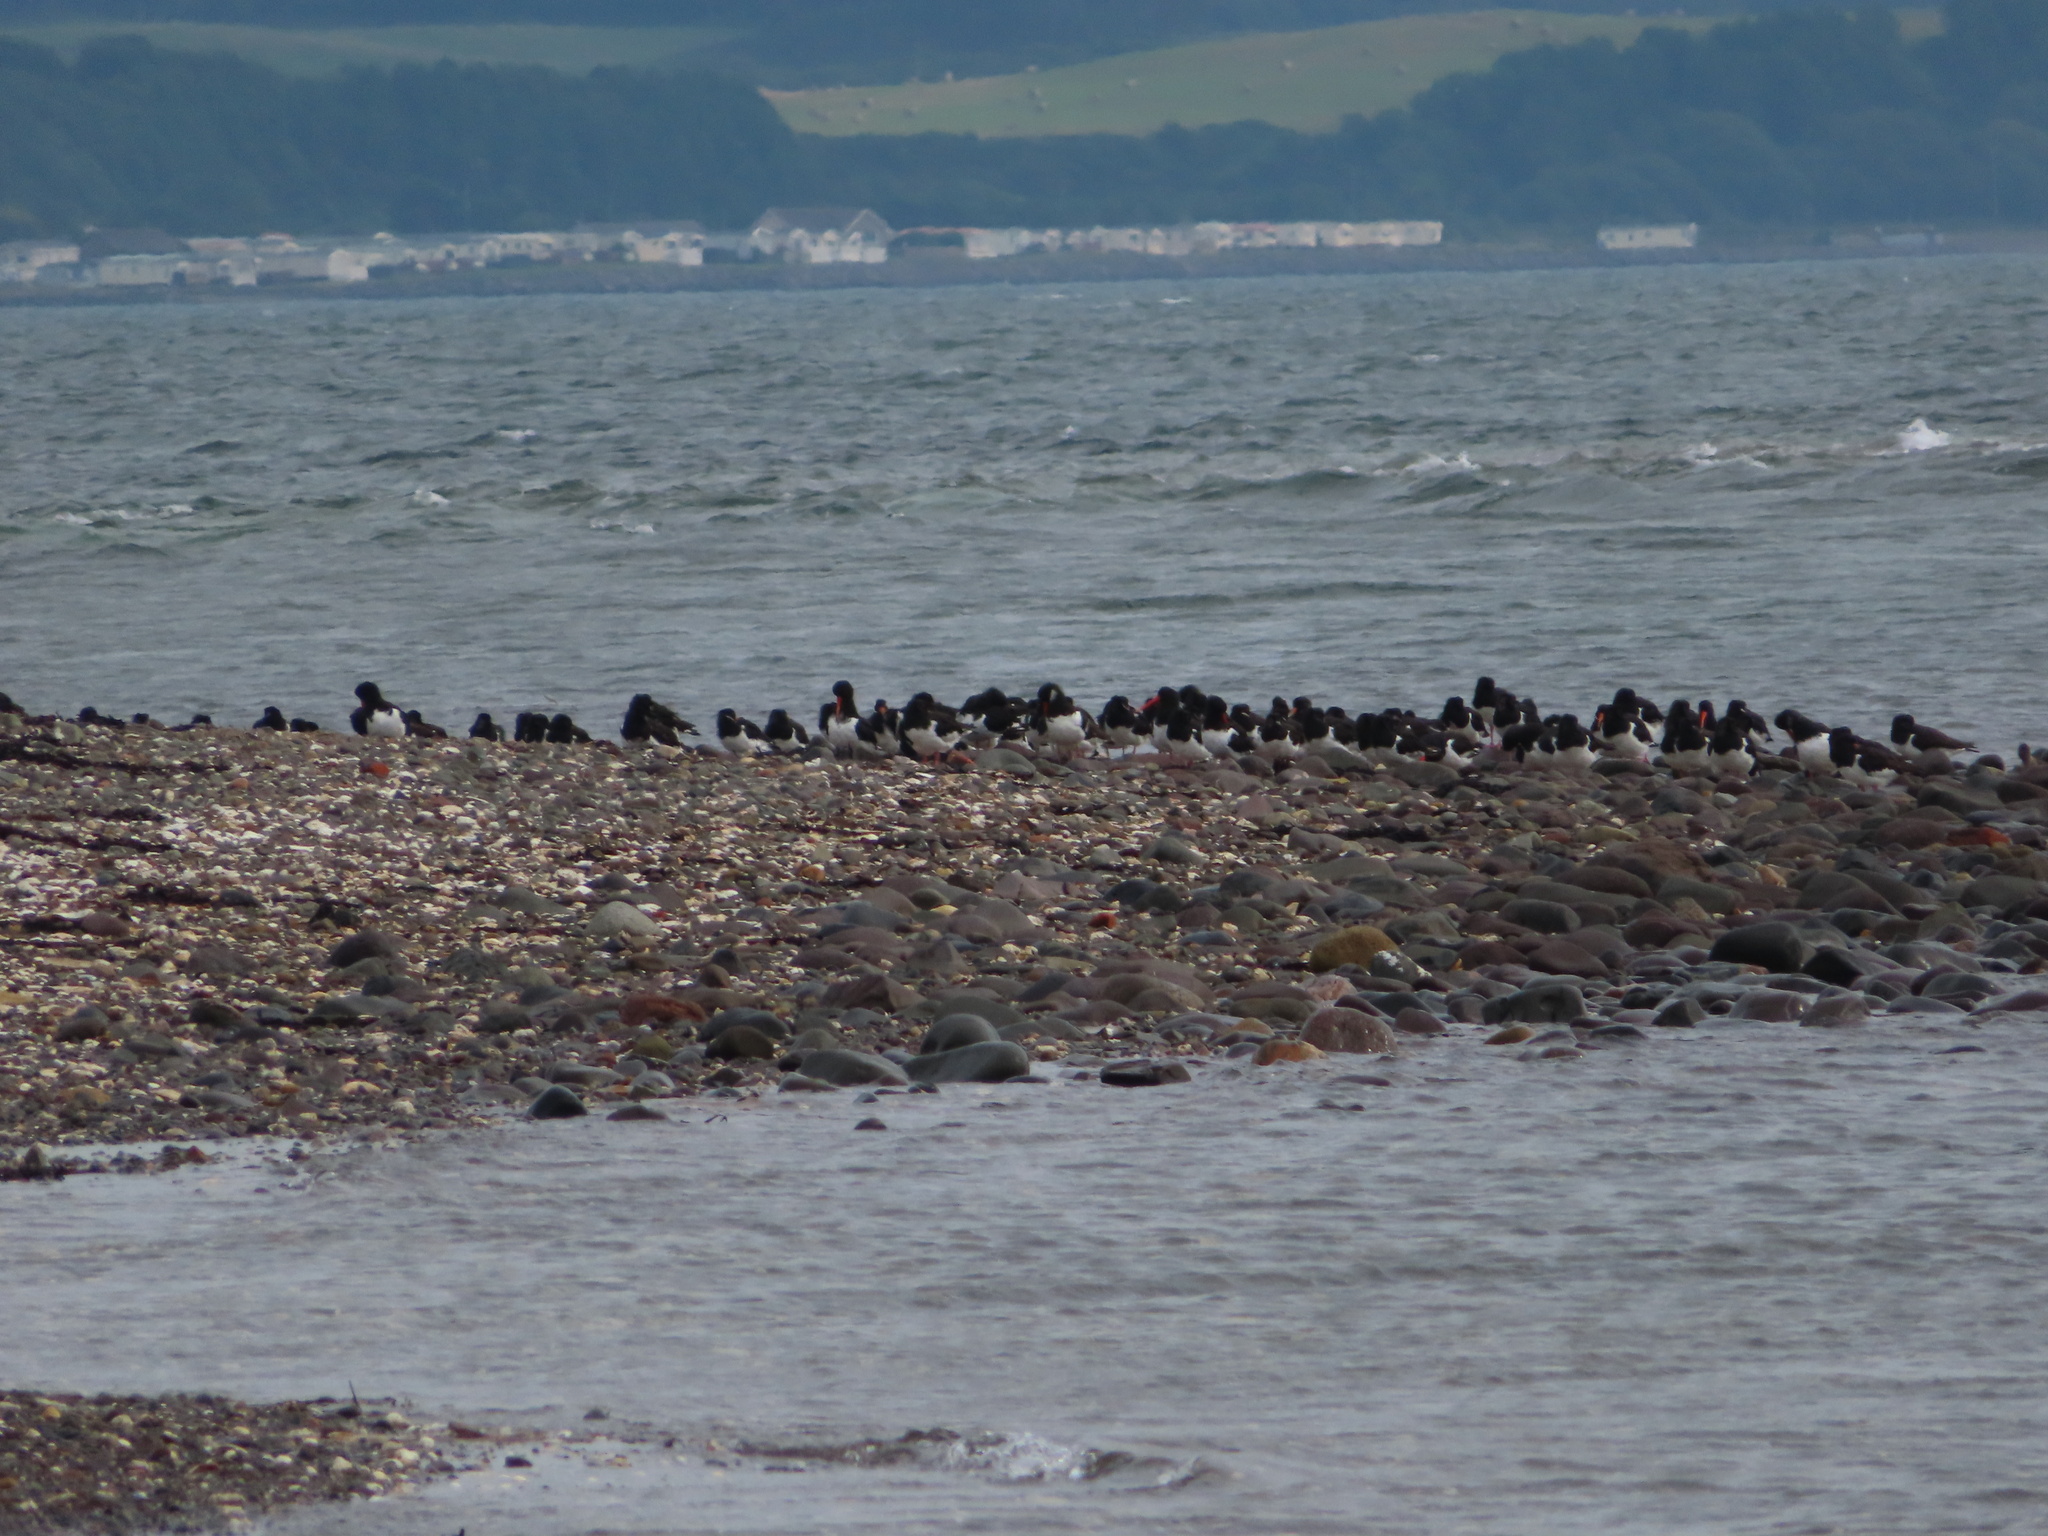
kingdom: Animalia
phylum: Chordata
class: Aves
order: Charadriiformes
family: Haematopodidae
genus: Haematopus
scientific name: Haematopus ostralegus
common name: Eurasian oystercatcher
